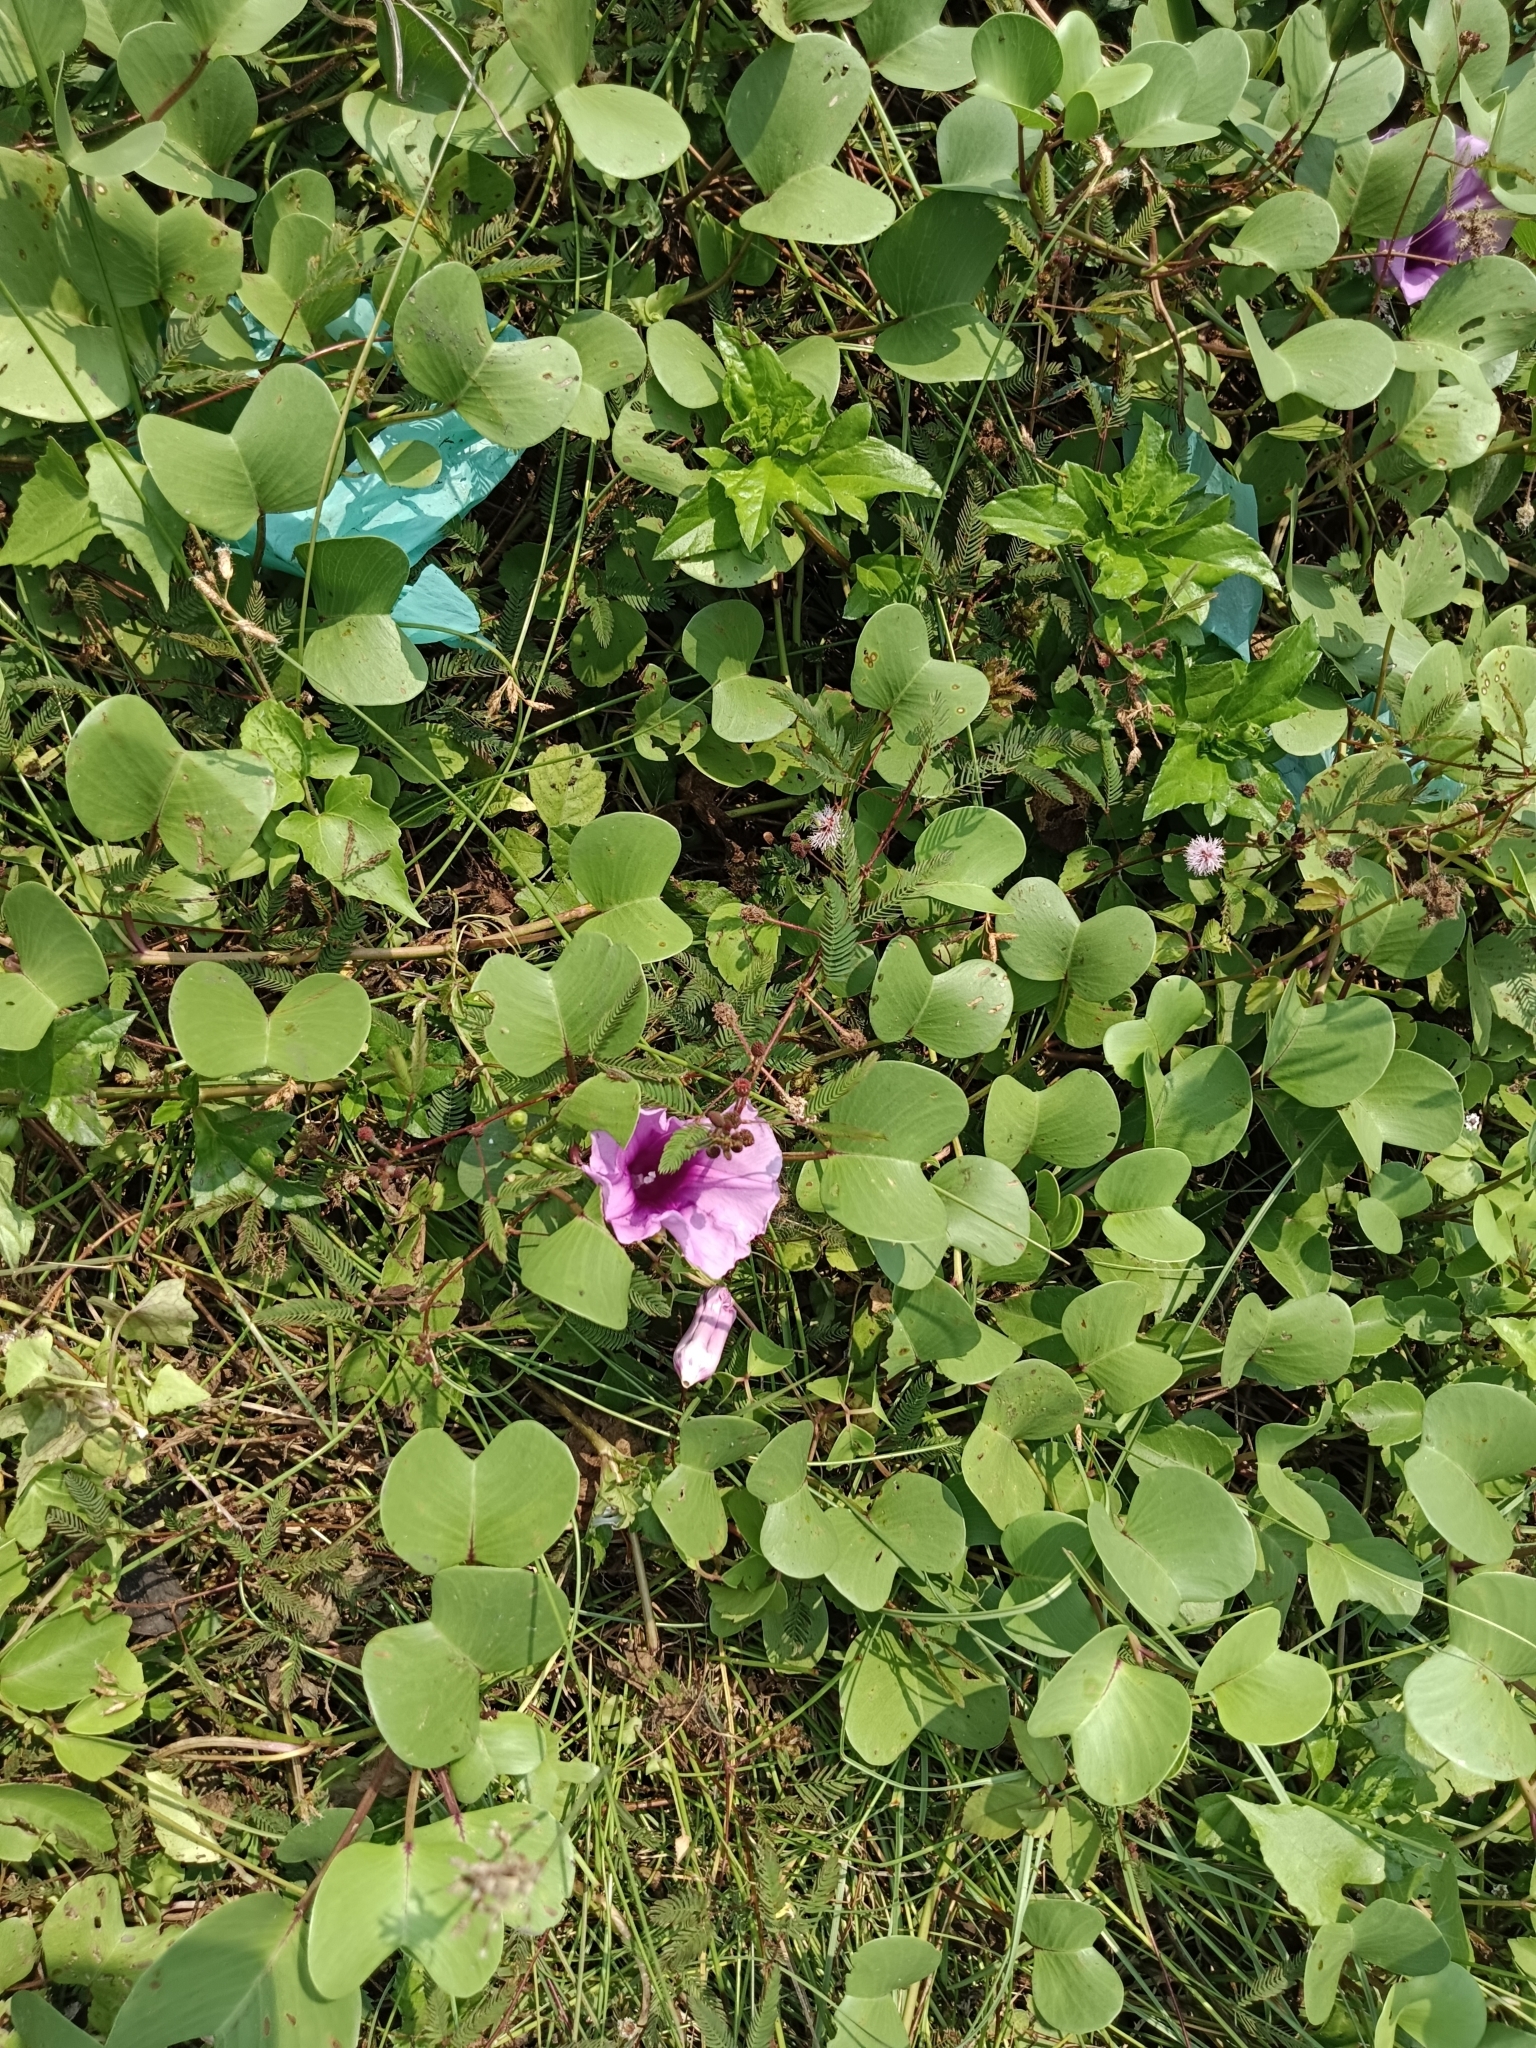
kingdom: Plantae
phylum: Tracheophyta
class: Magnoliopsida
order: Solanales
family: Convolvulaceae
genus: Ipomoea
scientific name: Ipomoea pes-caprae
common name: Beach morning glory
